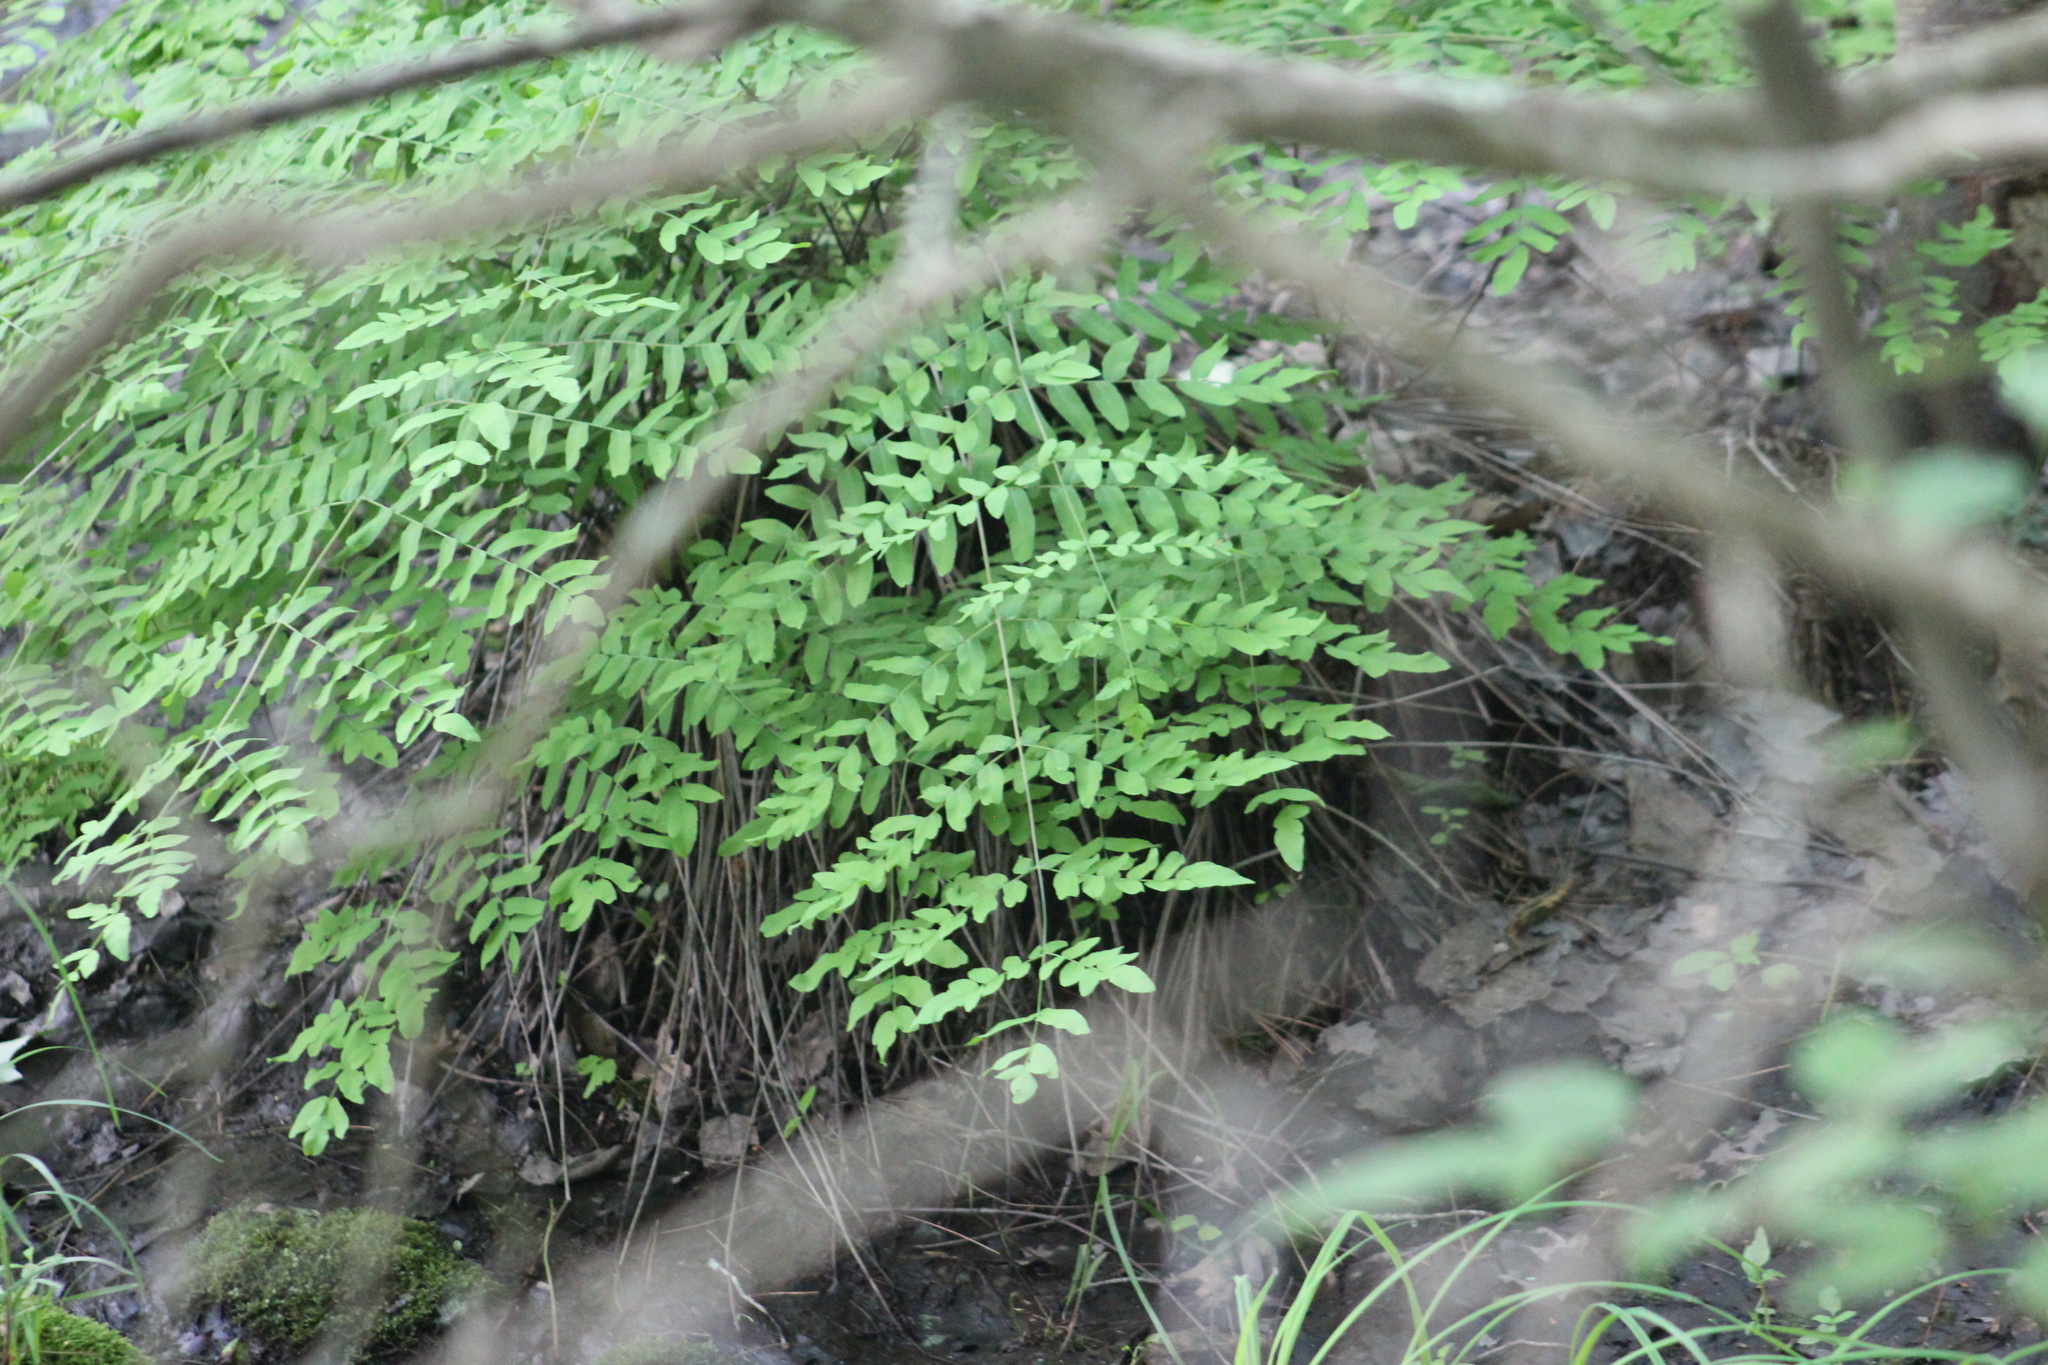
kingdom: Plantae
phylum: Tracheophyta
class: Polypodiopsida
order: Osmundales
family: Osmundaceae
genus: Osmunda
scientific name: Osmunda spectabilis
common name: American royal fern
